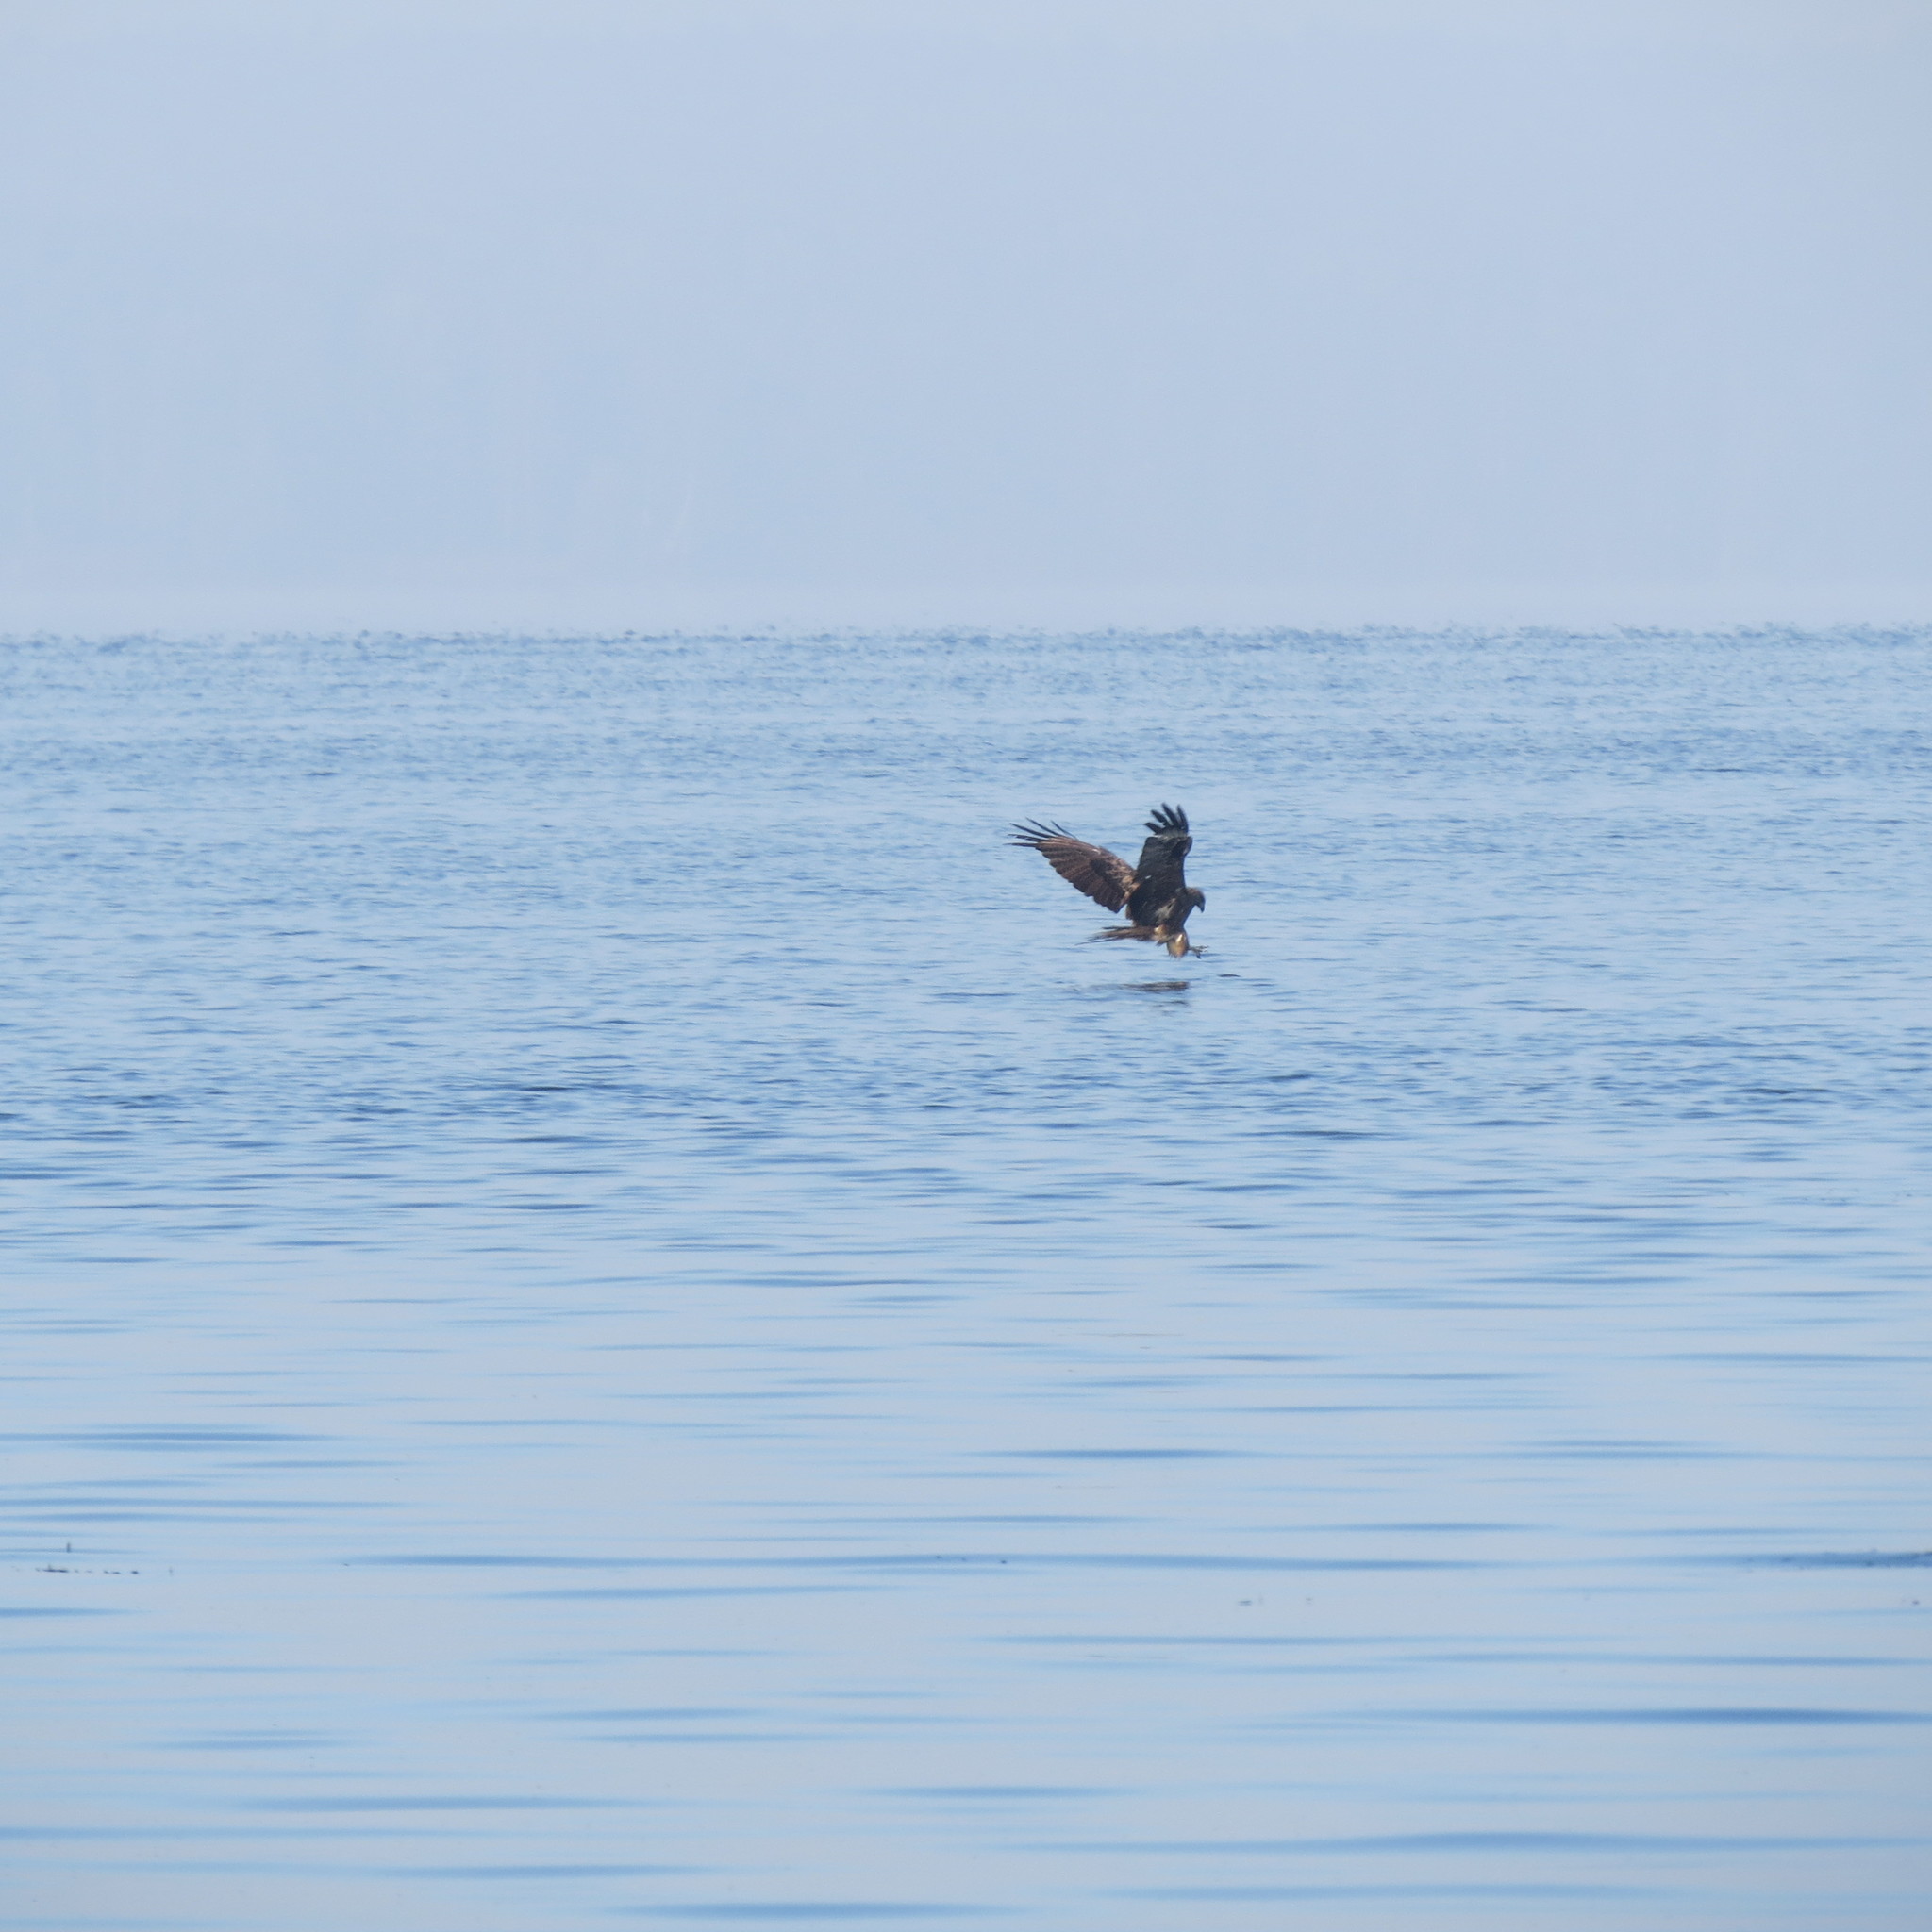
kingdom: Animalia
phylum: Chordata
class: Aves
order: Accipitriformes
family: Accipitridae
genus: Milvus
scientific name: Milvus migrans
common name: Black kite
